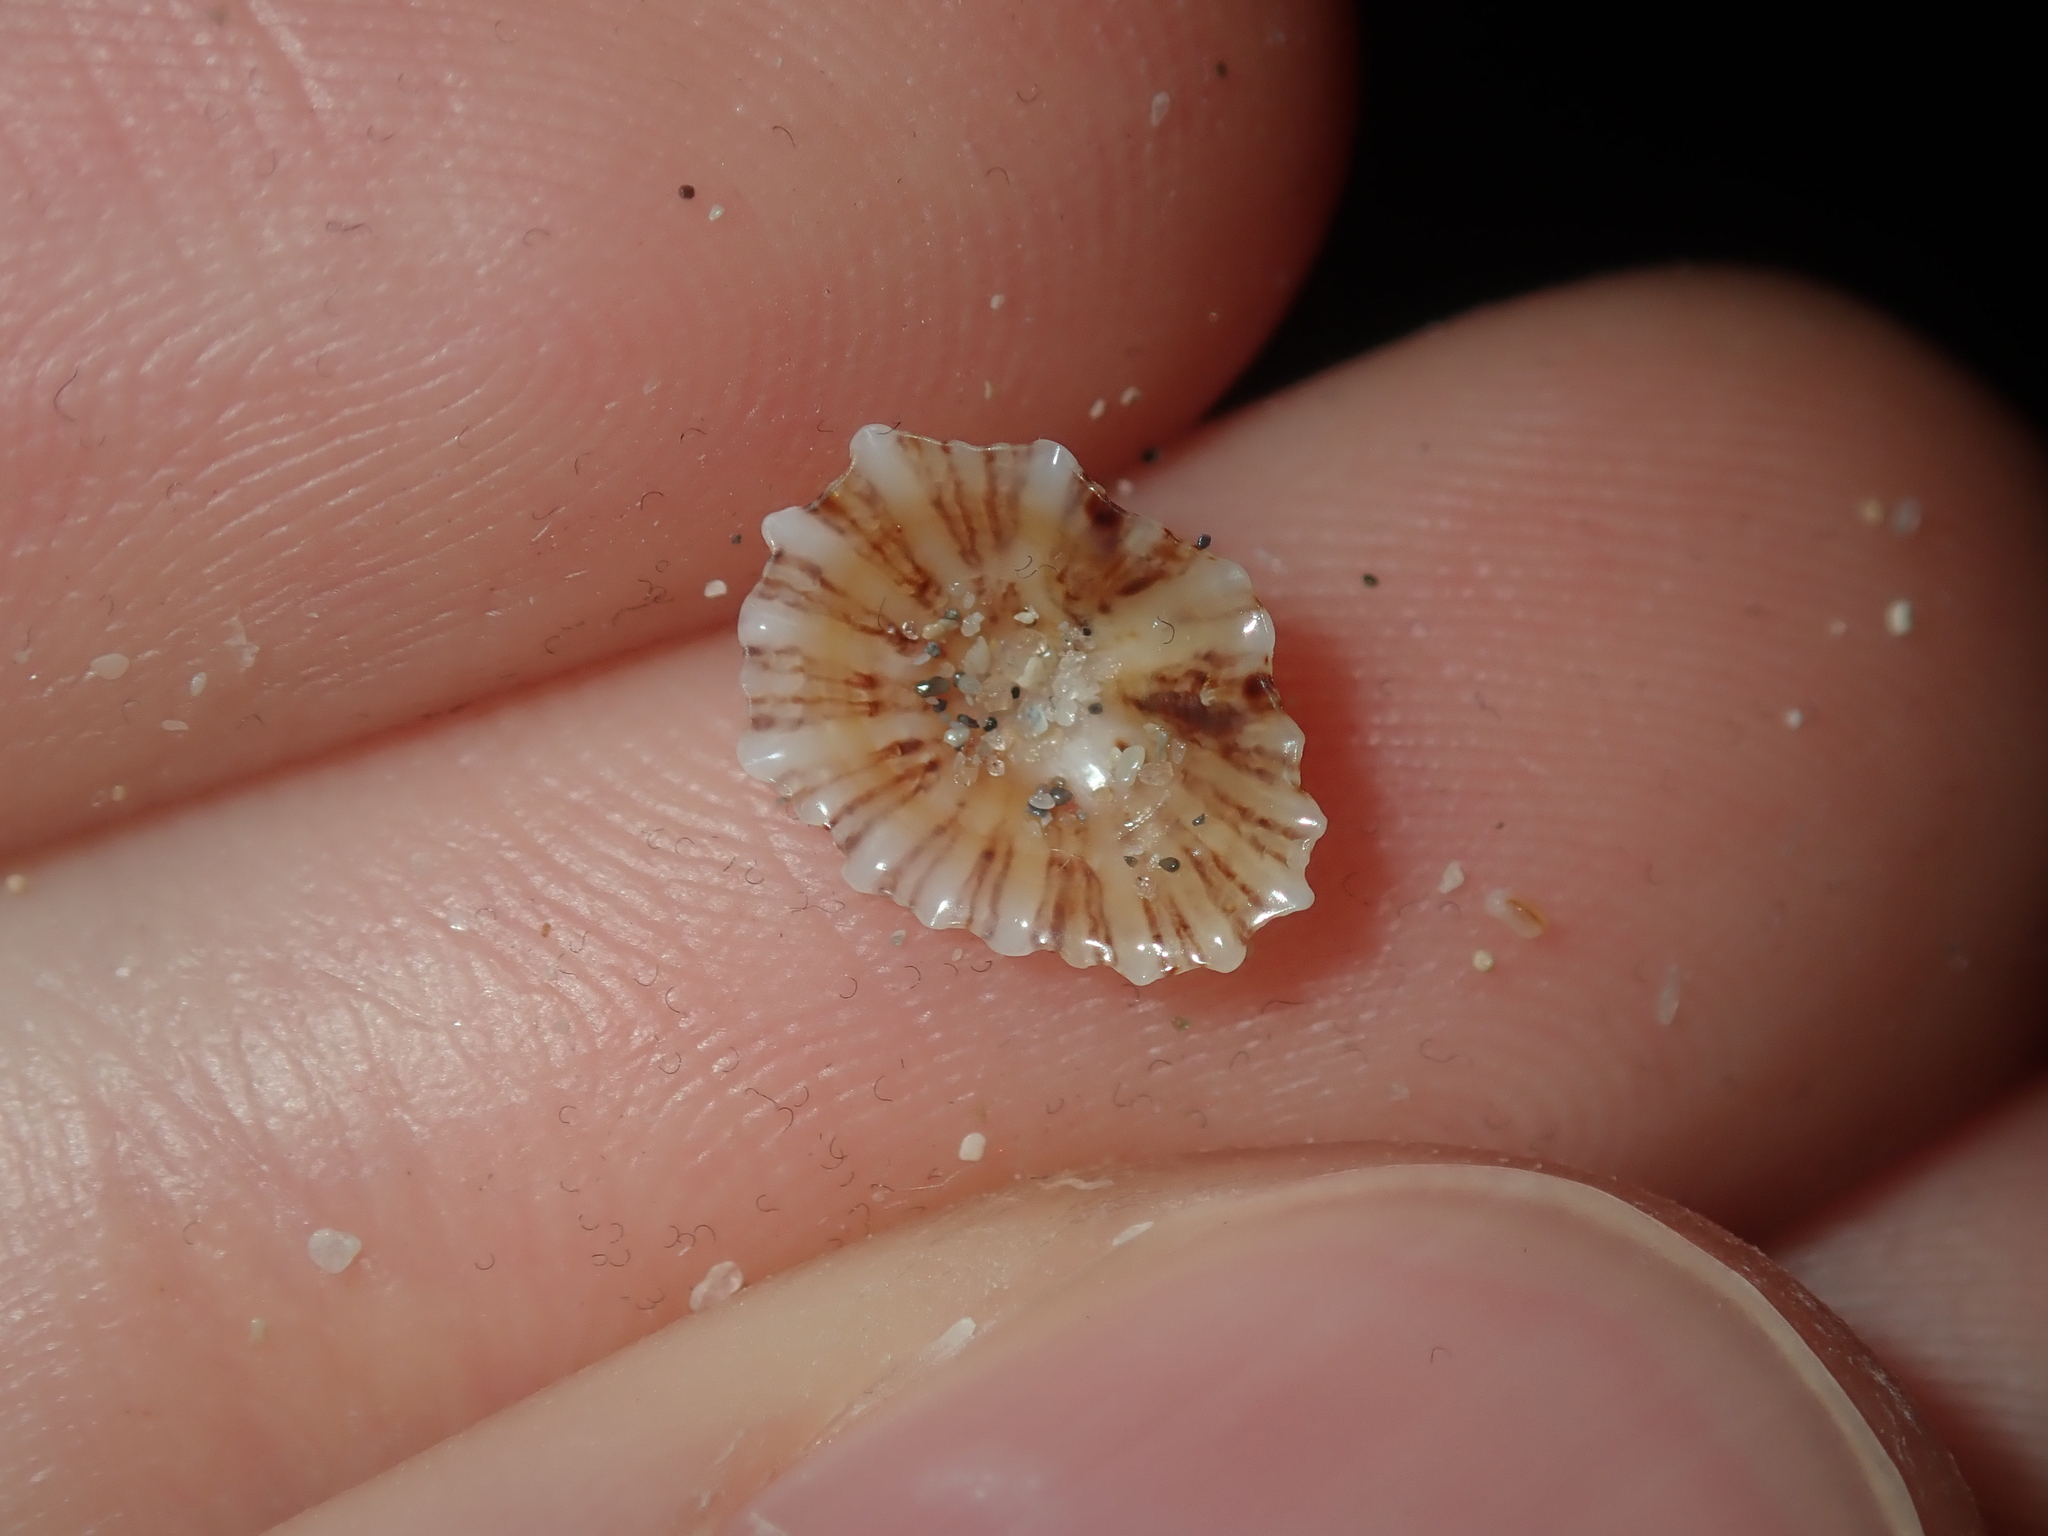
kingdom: Animalia
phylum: Mollusca
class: Gastropoda
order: Siphonariida
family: Siphonariidae
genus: Siphonaria
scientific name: Siphonaria zelandica
